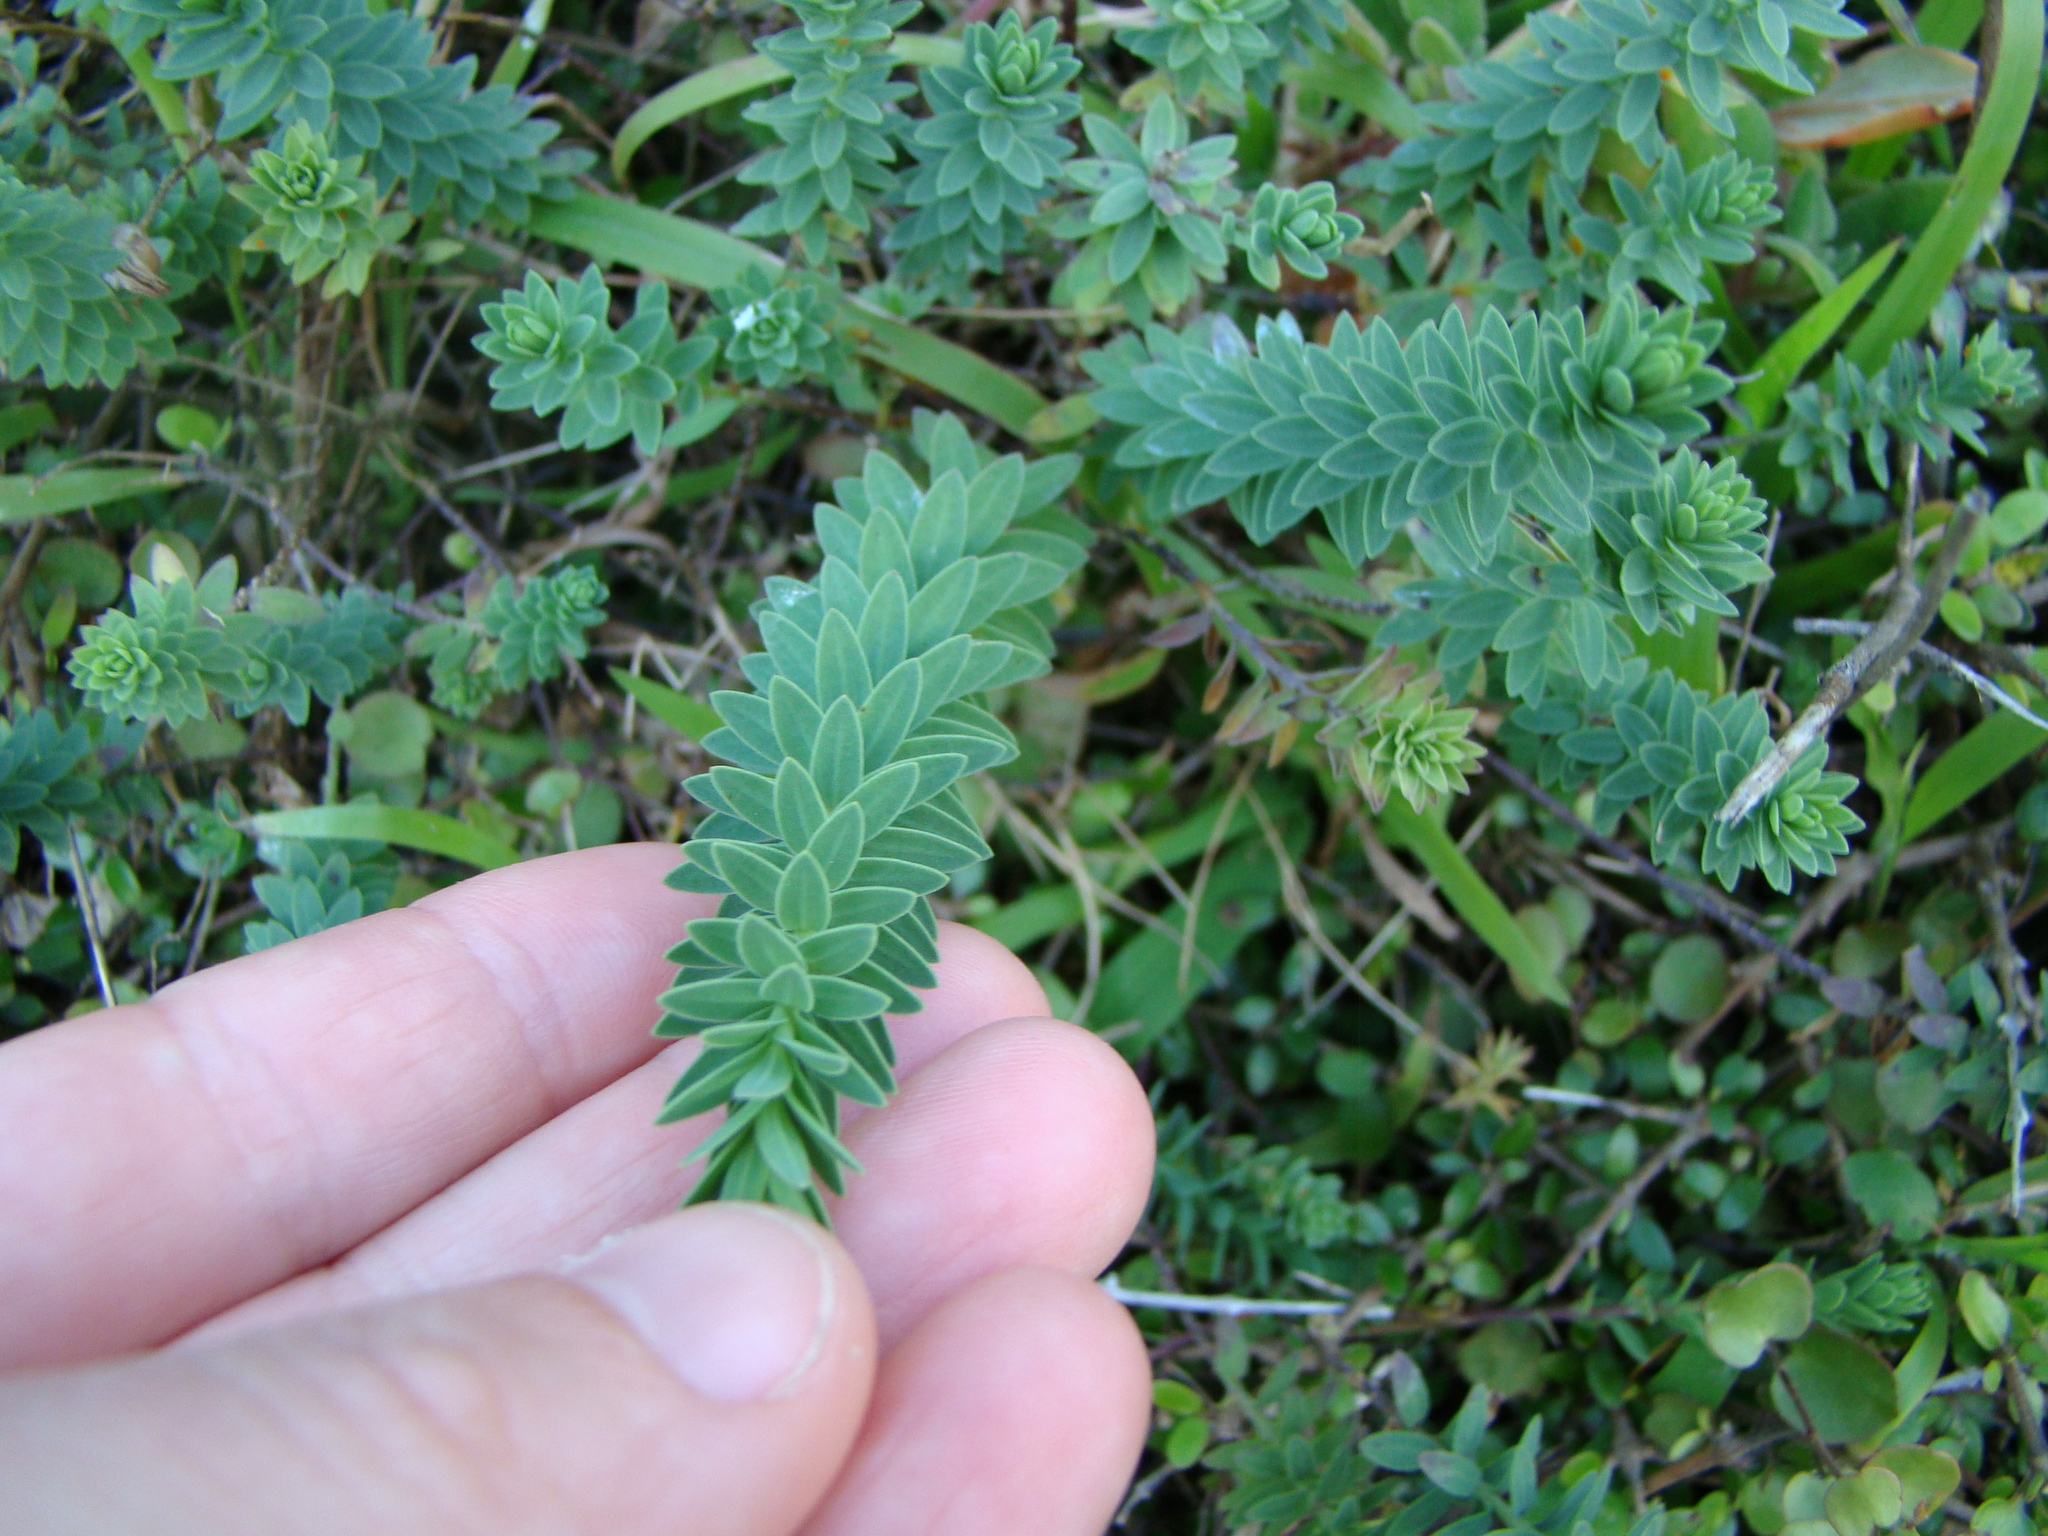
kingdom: Plantae
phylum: Tracheophyta
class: Magnoliopsida
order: Malpighiales
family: Linaceae
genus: Linum
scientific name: Linum monogynum
